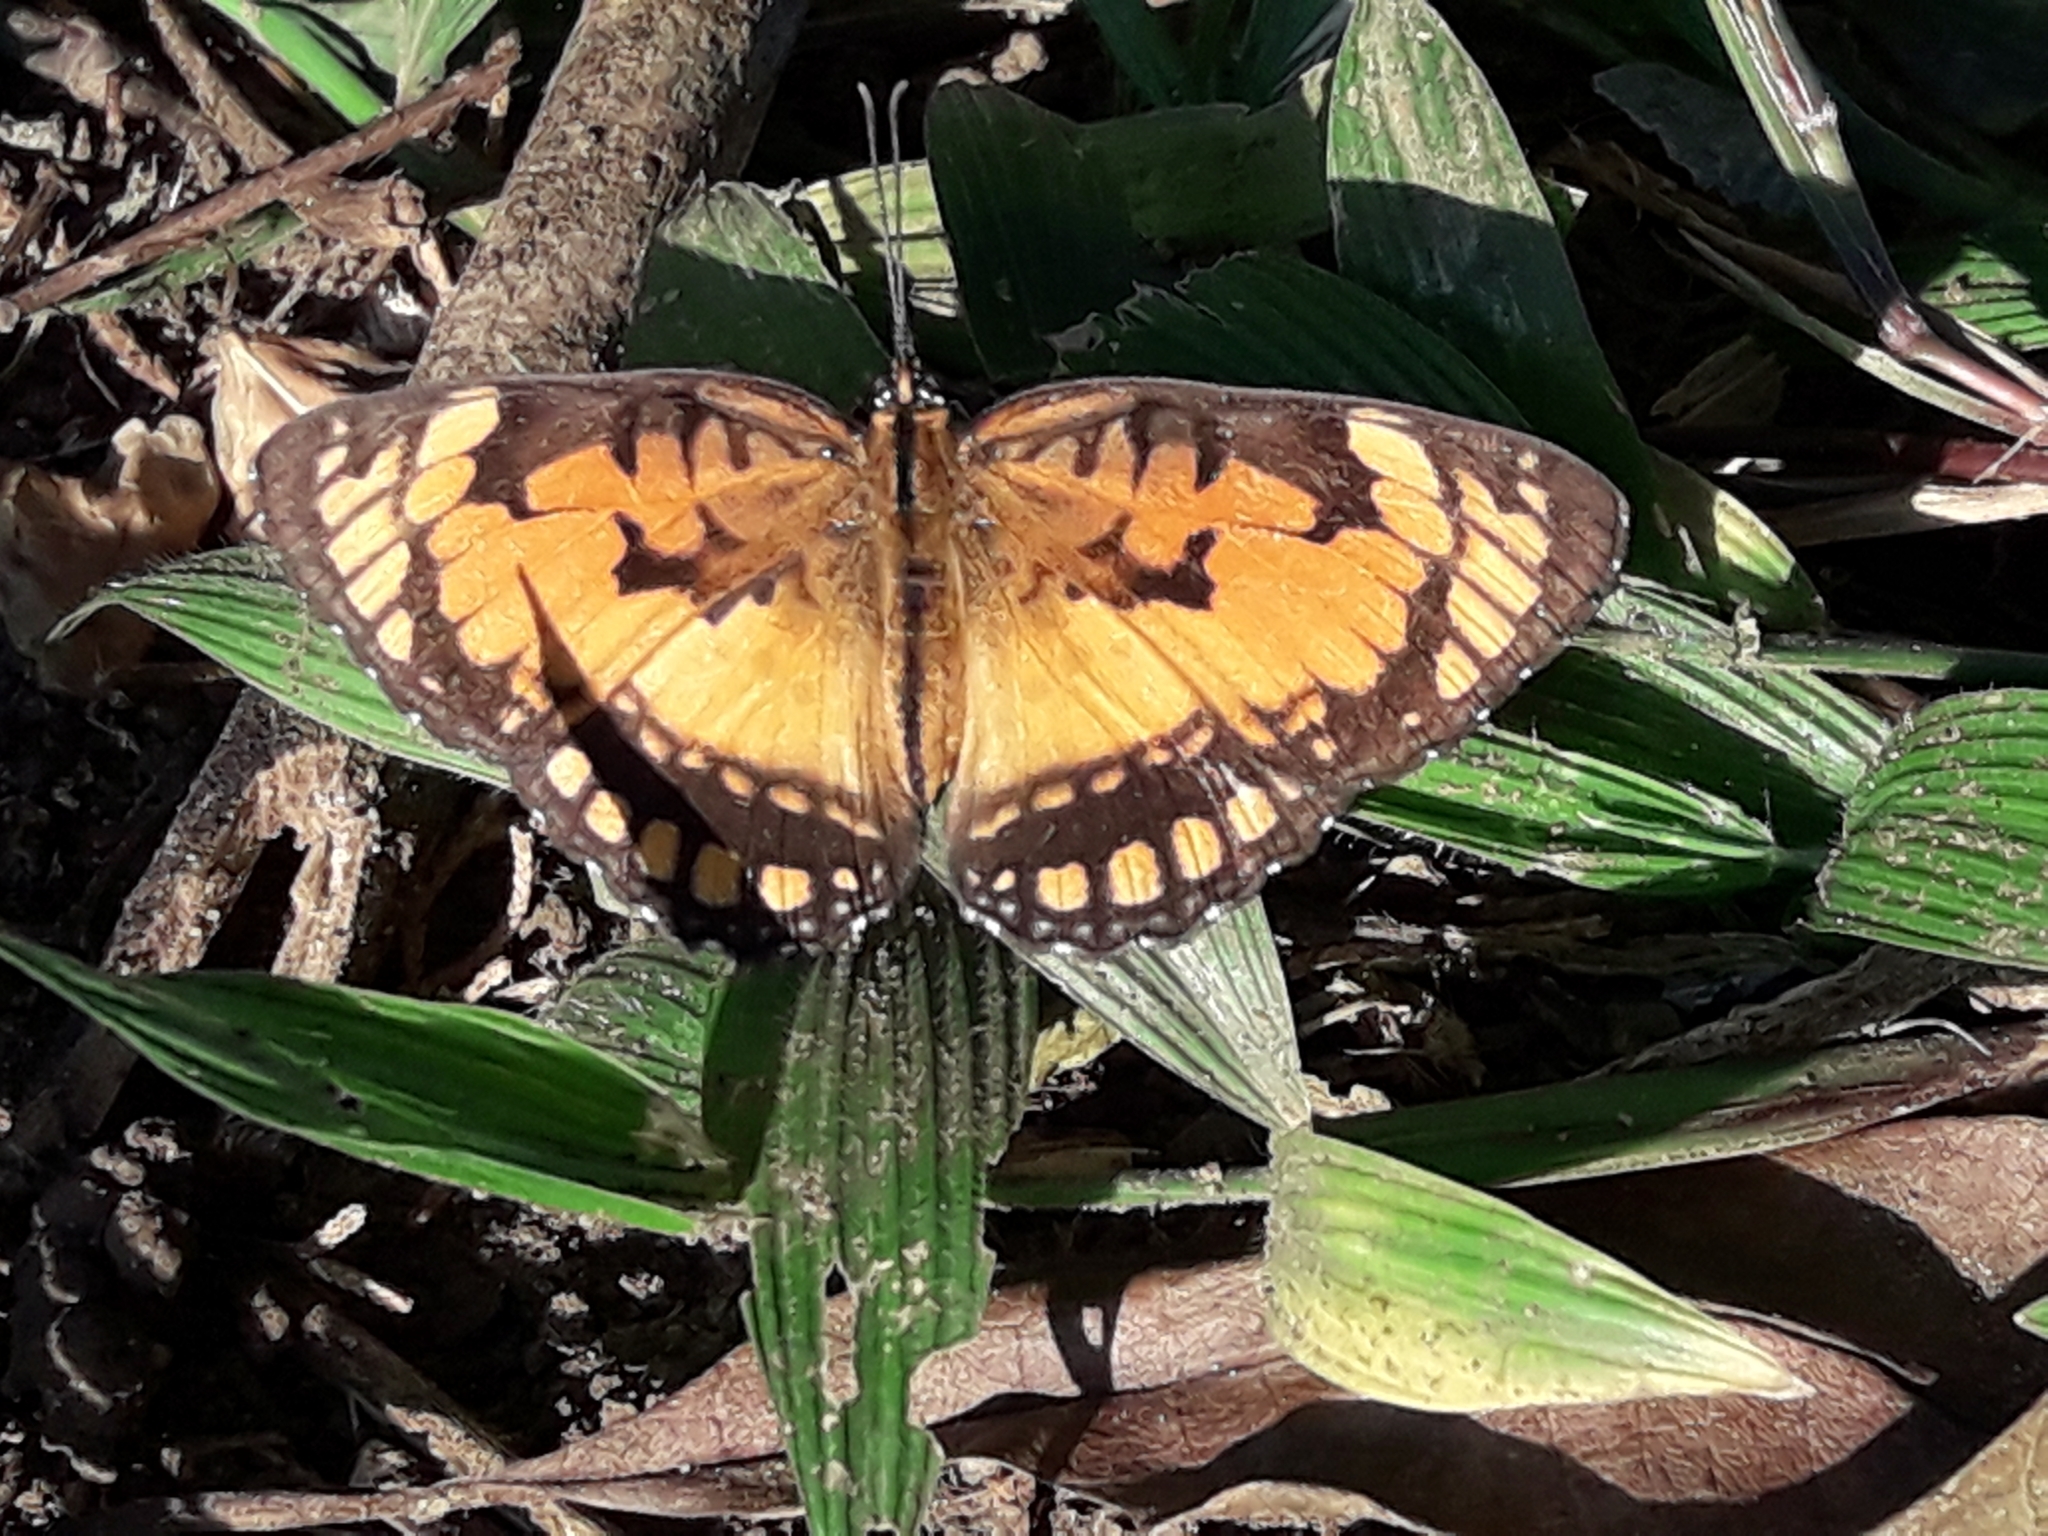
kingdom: Animalia
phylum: Arthropoda
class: Insecta
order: Lepidoptera
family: Nymphalidae
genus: Byblia
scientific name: Byblia anvatara
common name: African joker
